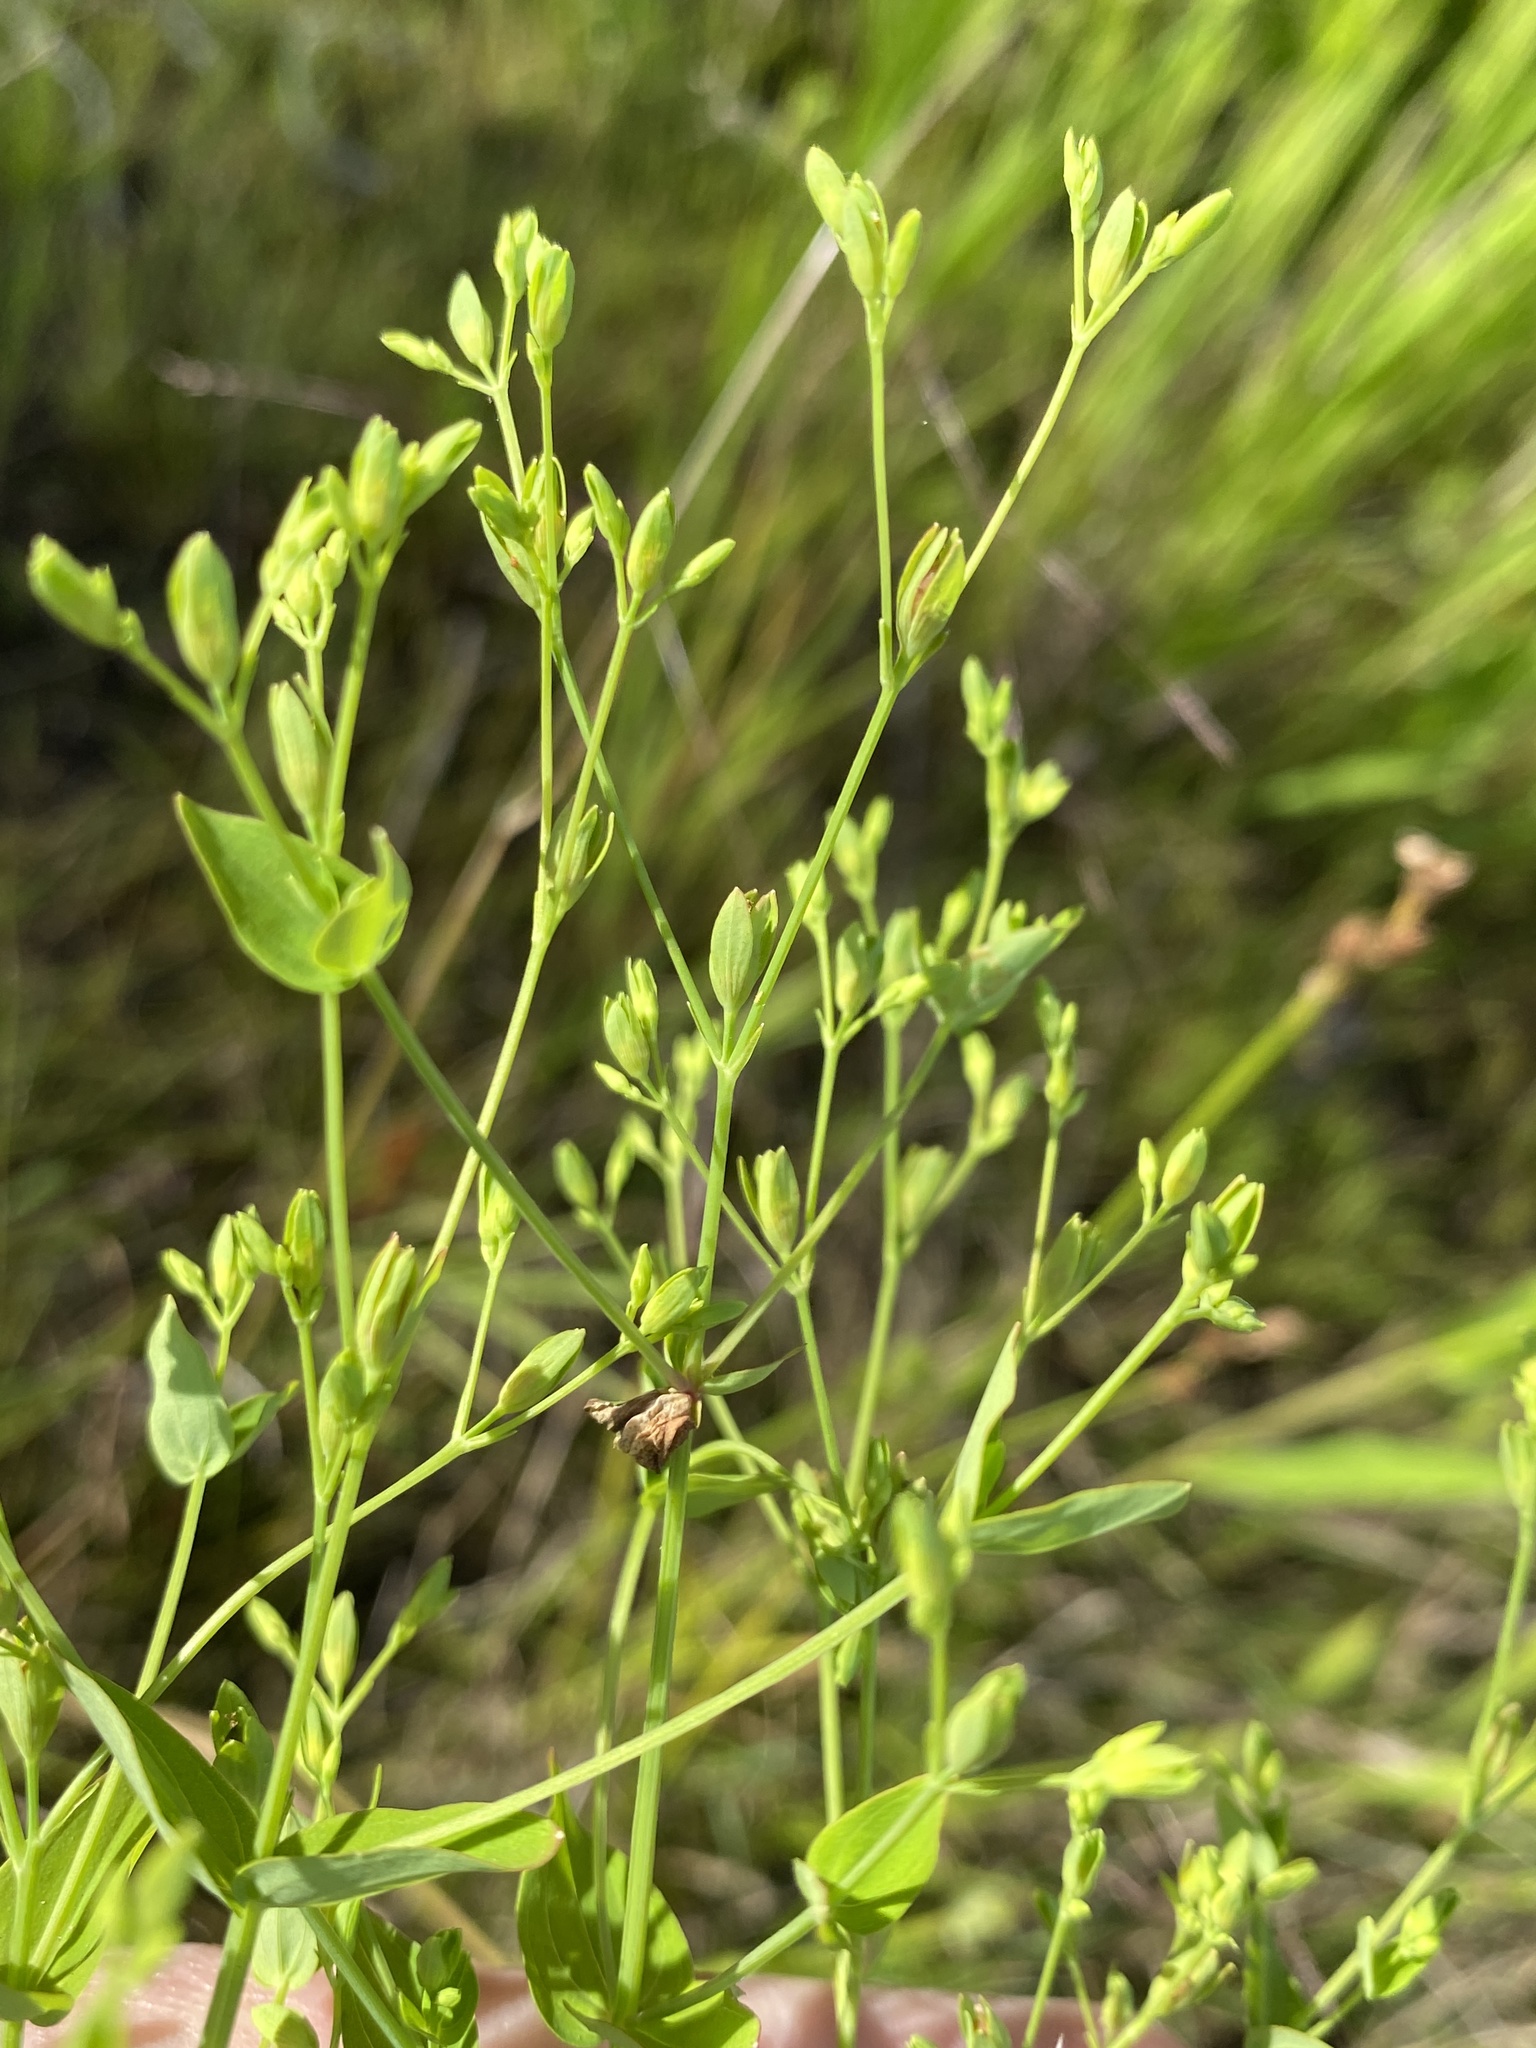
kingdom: Plantae
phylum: Tracheophyta
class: Magnoliopsida
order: Malpighiales
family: Hypericaceae
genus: Hypericum
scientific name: Hypericum mutilum
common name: Dwarf st. john's-wort
